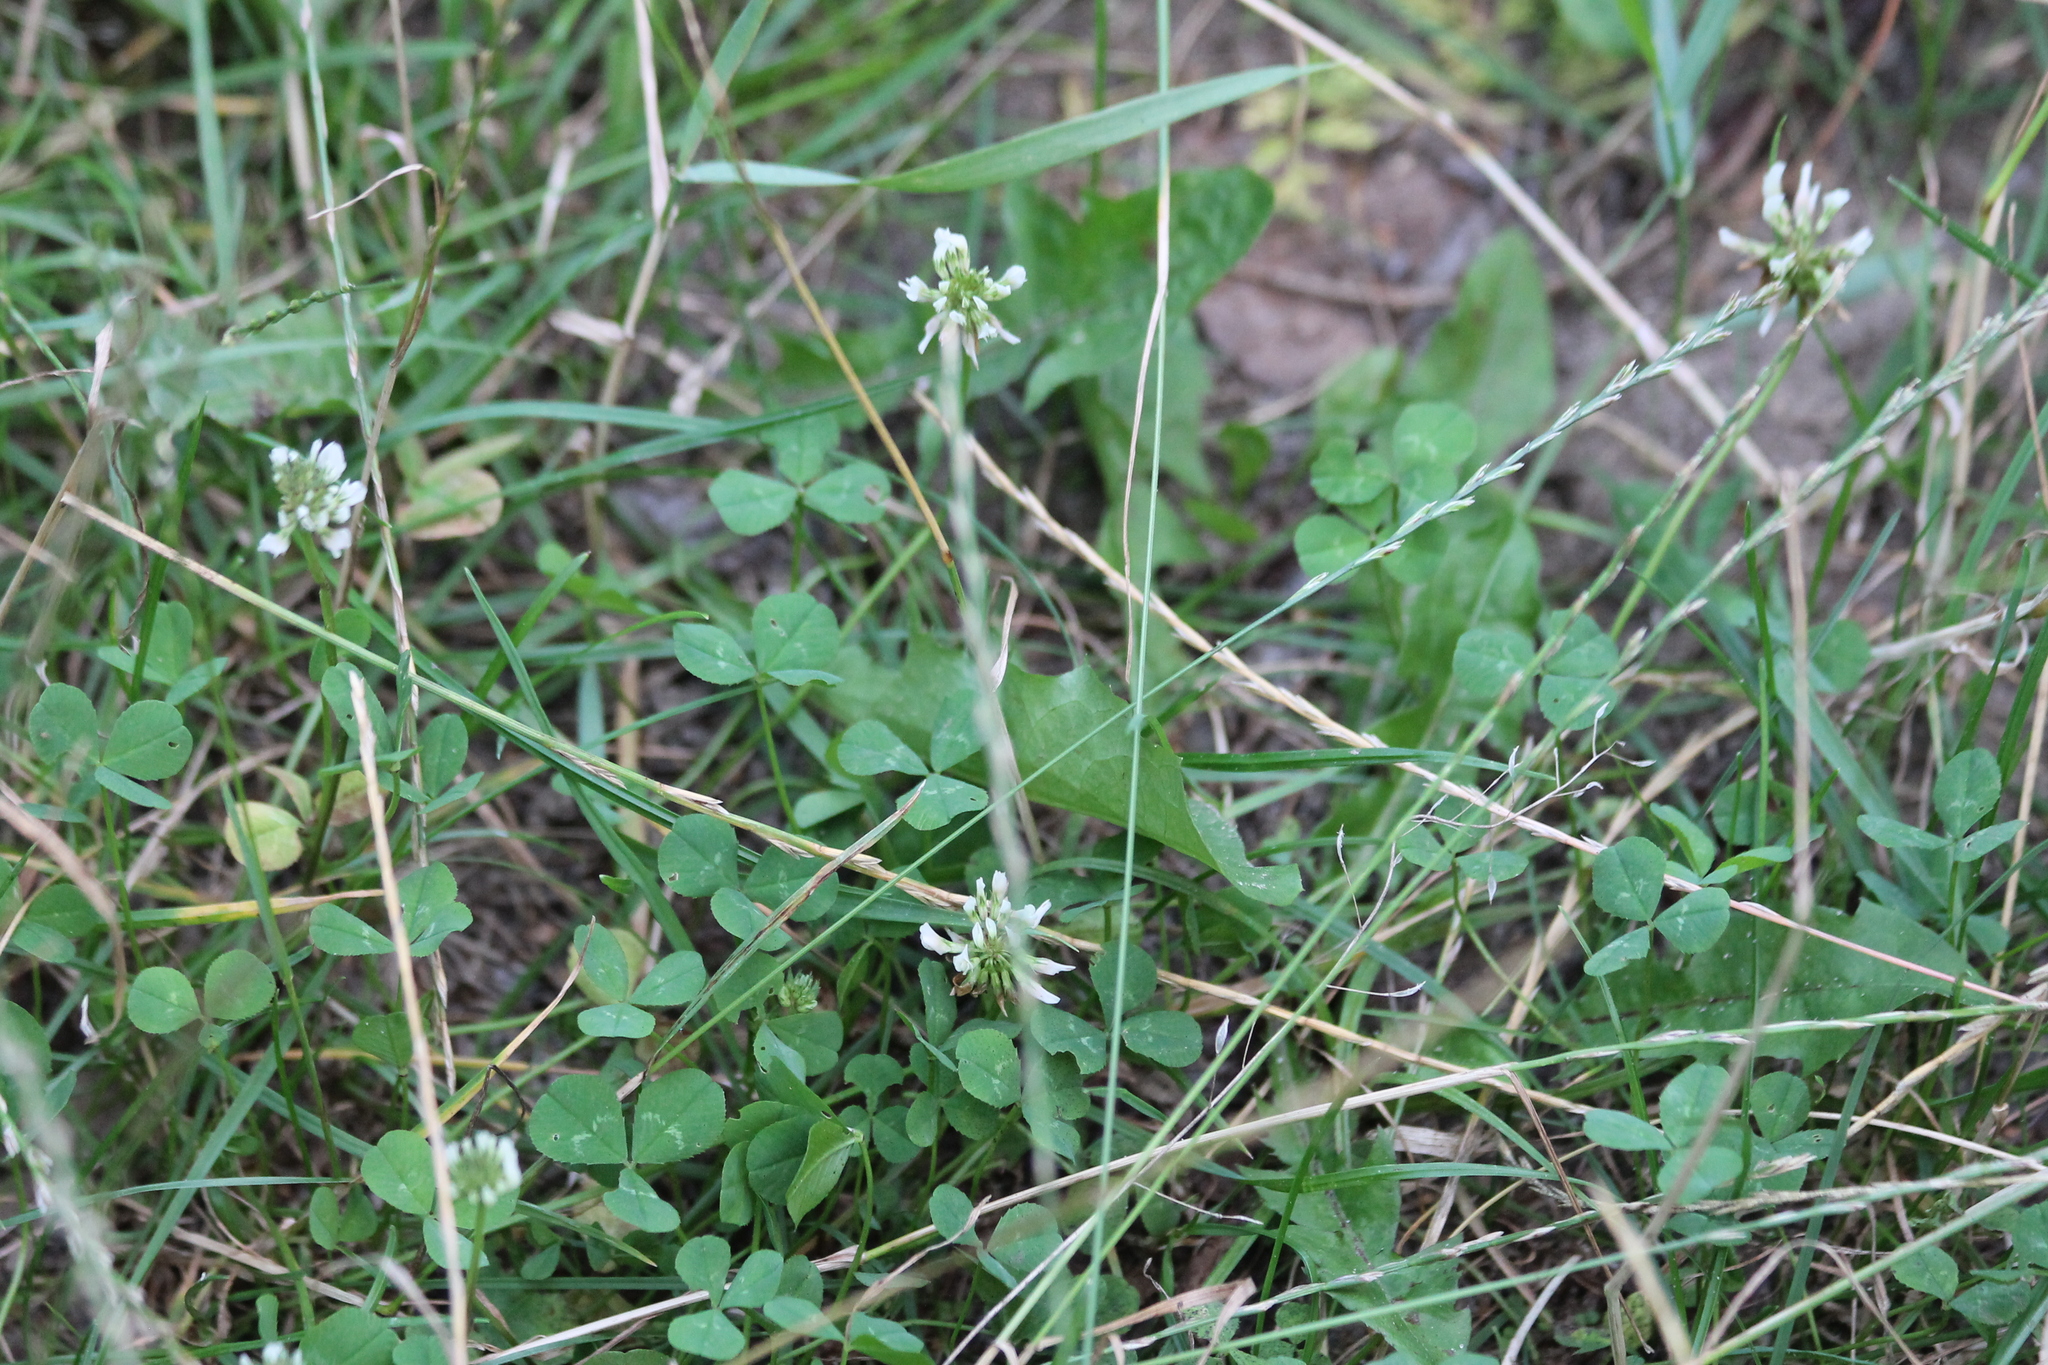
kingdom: Plantae
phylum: Tracheophyta
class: Magnoliopsida
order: Fabales
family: Fabaceae
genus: Trifolium
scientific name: Trifolium repens
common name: White clover
